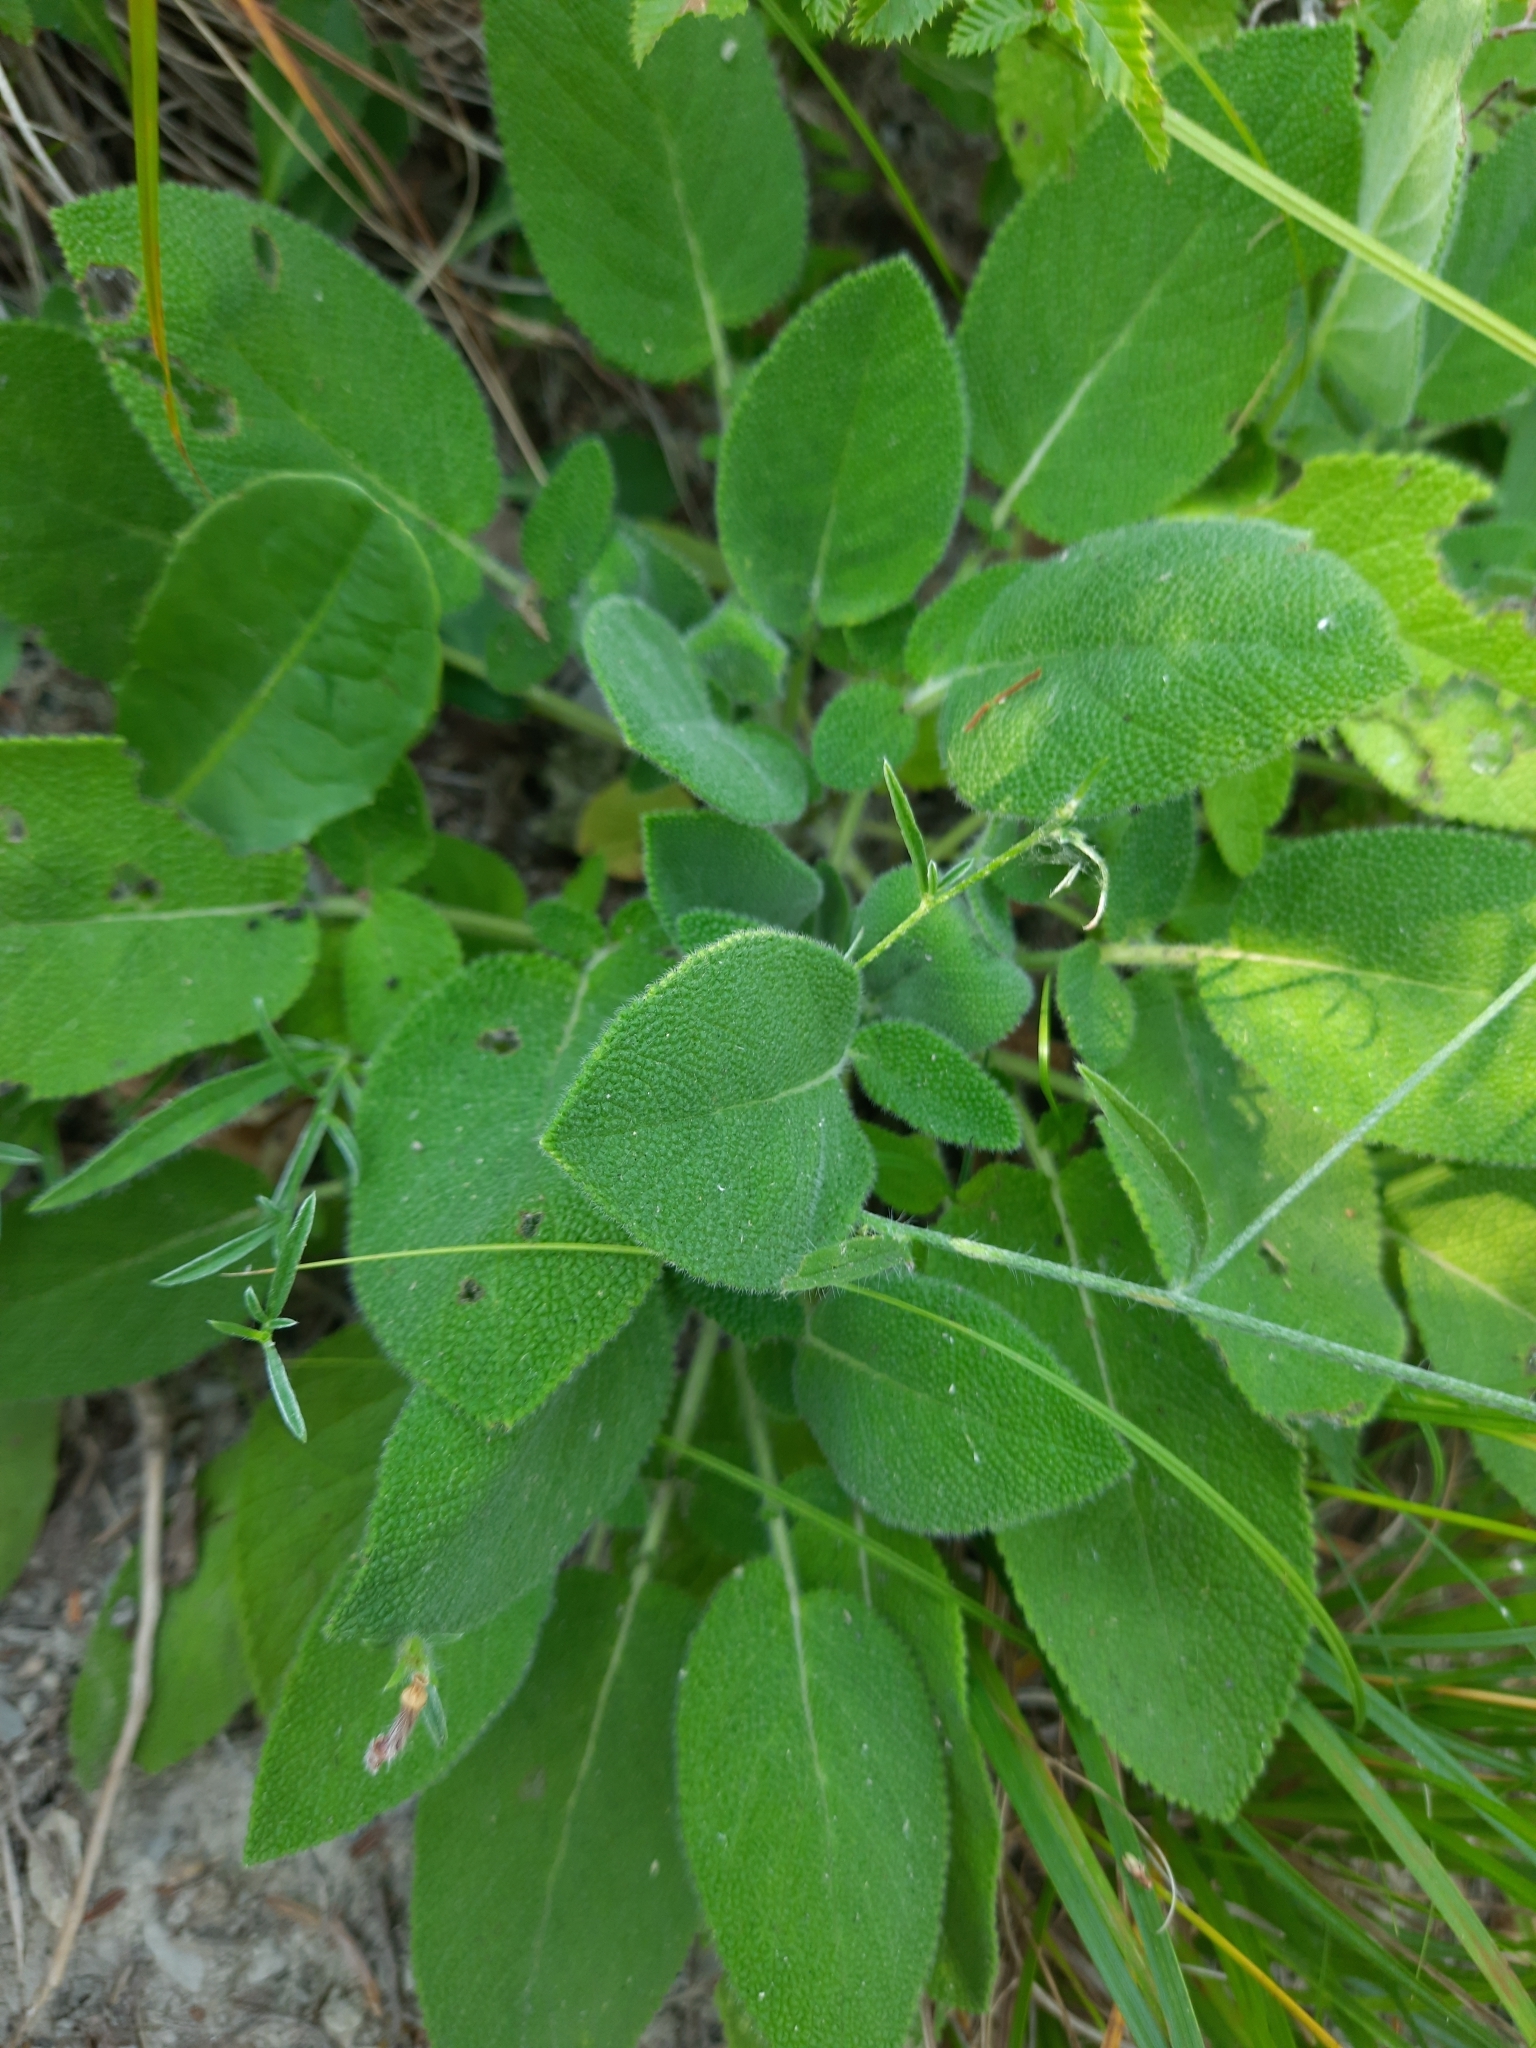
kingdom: Plantae
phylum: Tracheophyta
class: Magnoliopsida
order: Lamiales
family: Lamiaceae
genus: Salvia
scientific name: Salvia ringens
